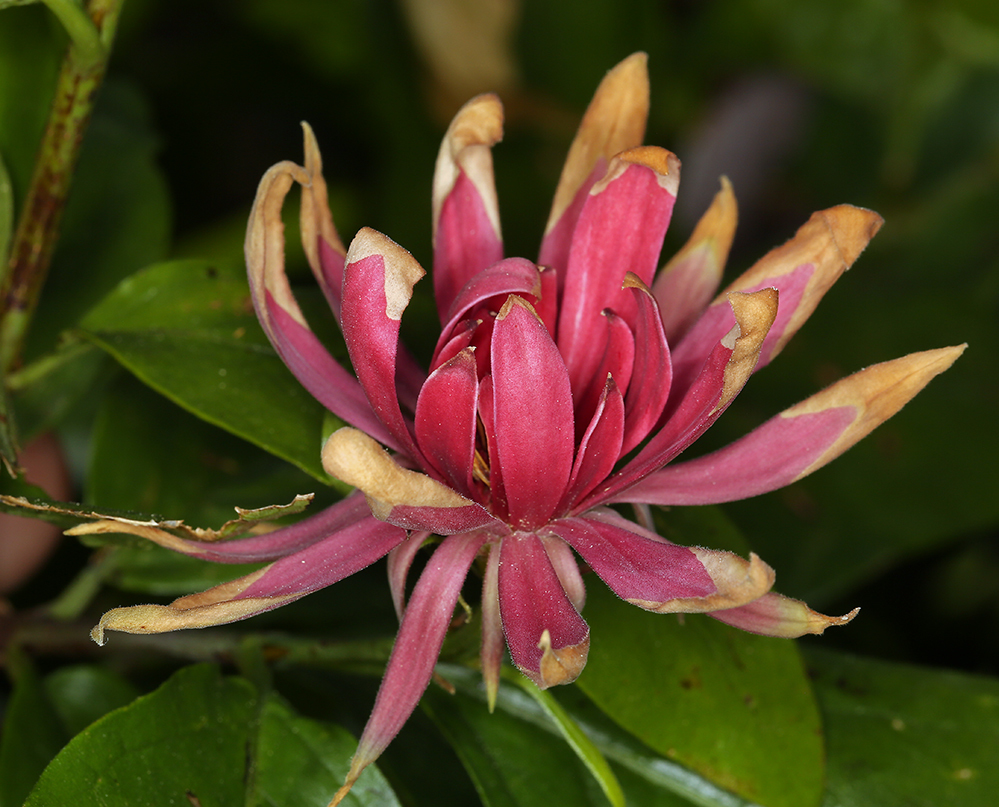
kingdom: Plantae
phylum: Tracheophyta
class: Magnoliopsida
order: Laurales
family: Calycanthaceae
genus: Calycanthus
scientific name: Calycanthus occidentalis
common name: California spicebush
